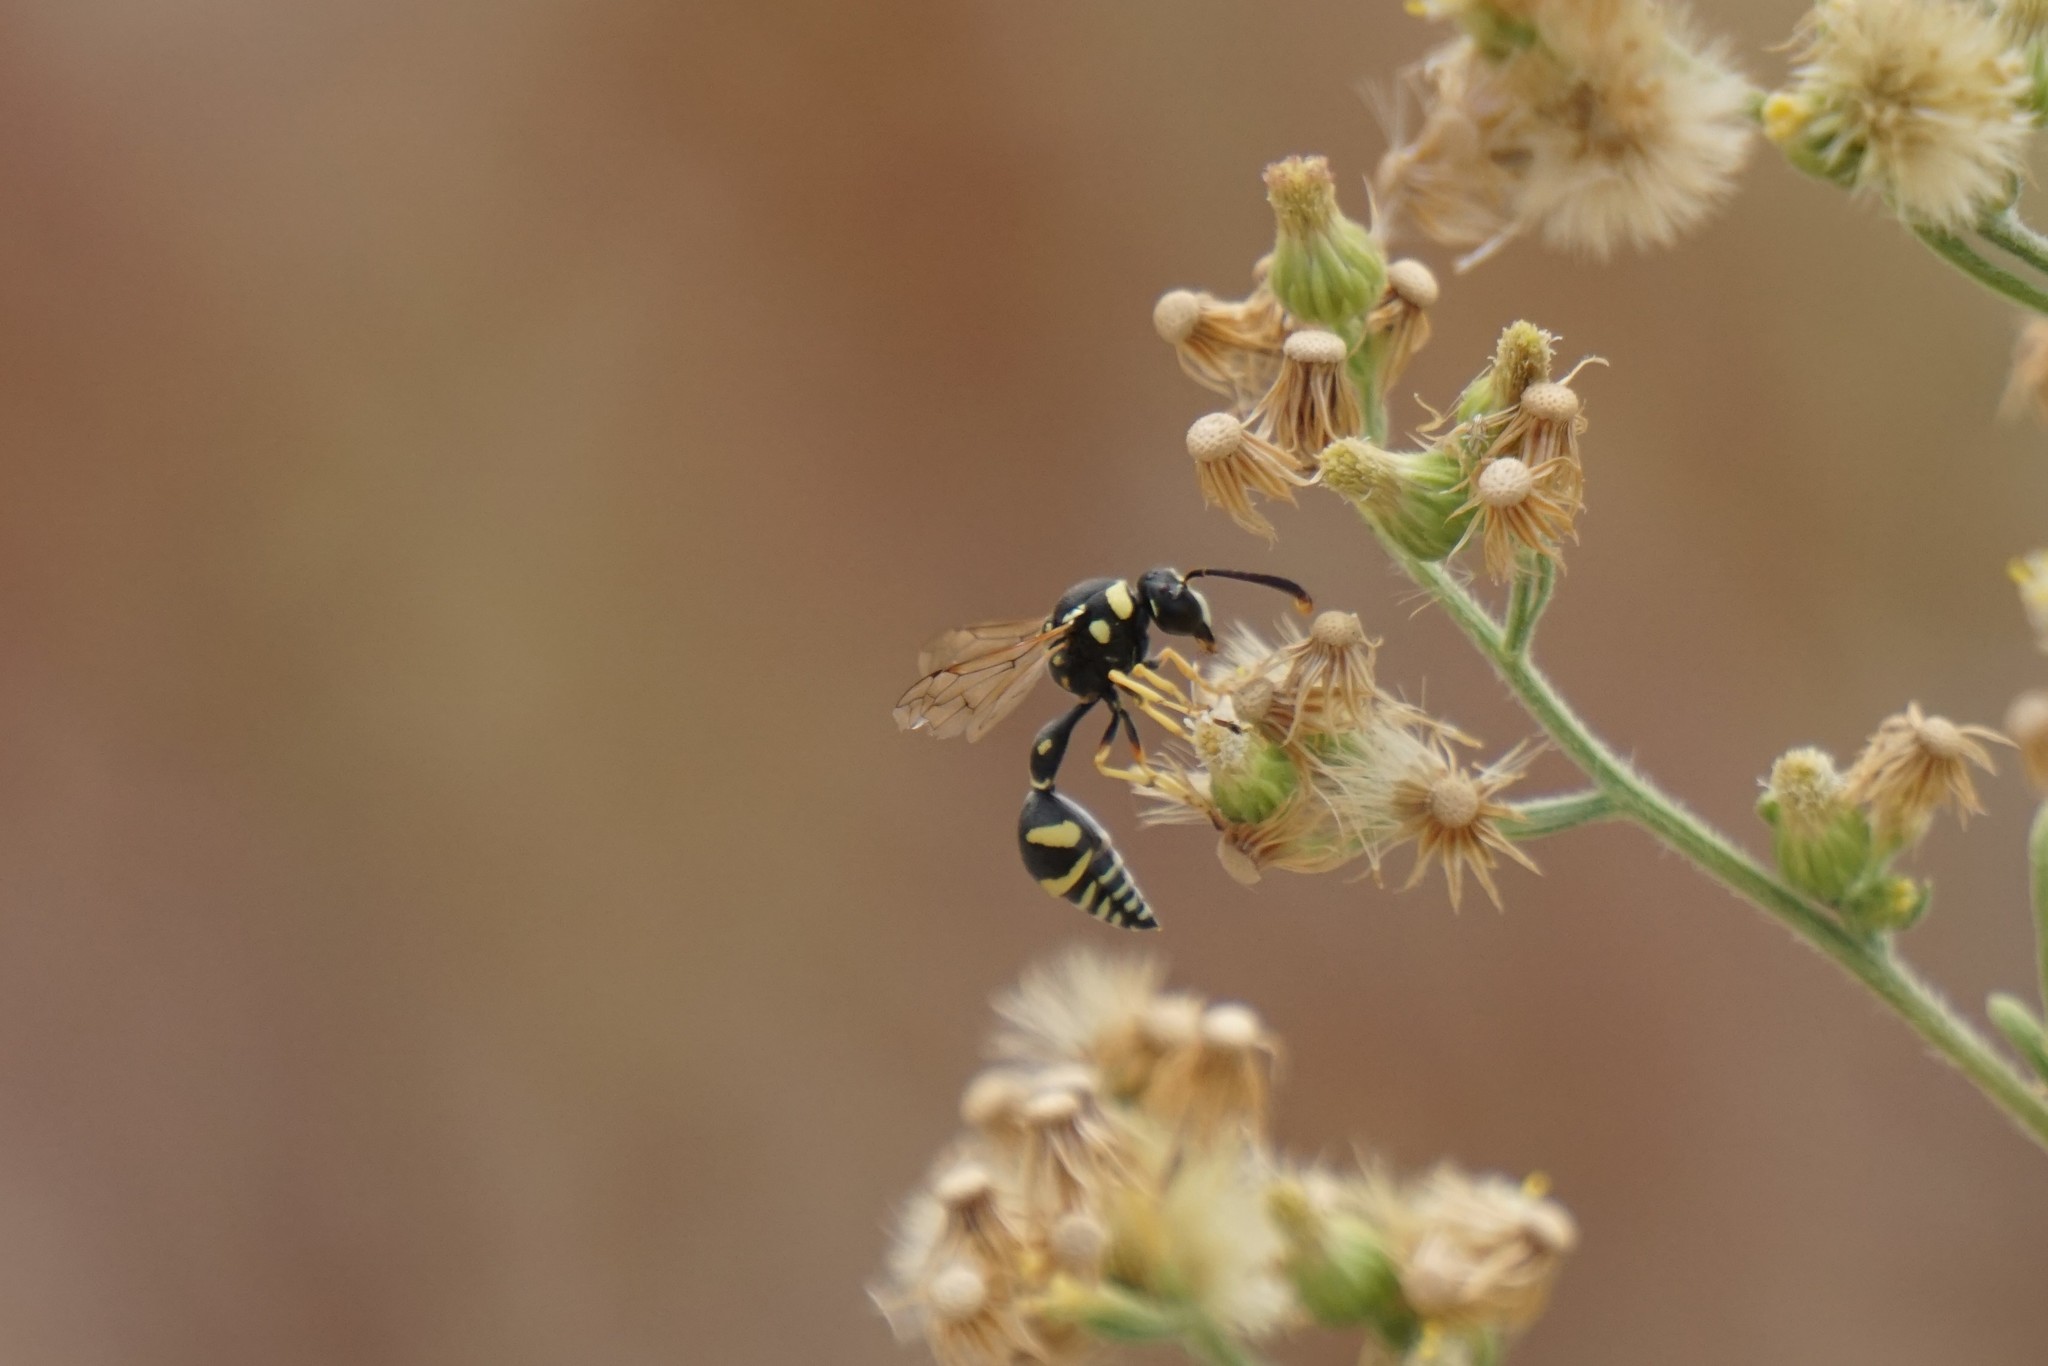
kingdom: Animalia
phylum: Arthropoda
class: Insecta
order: Hymenoptera
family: Vespidae
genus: Eumenes
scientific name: Eumenes
